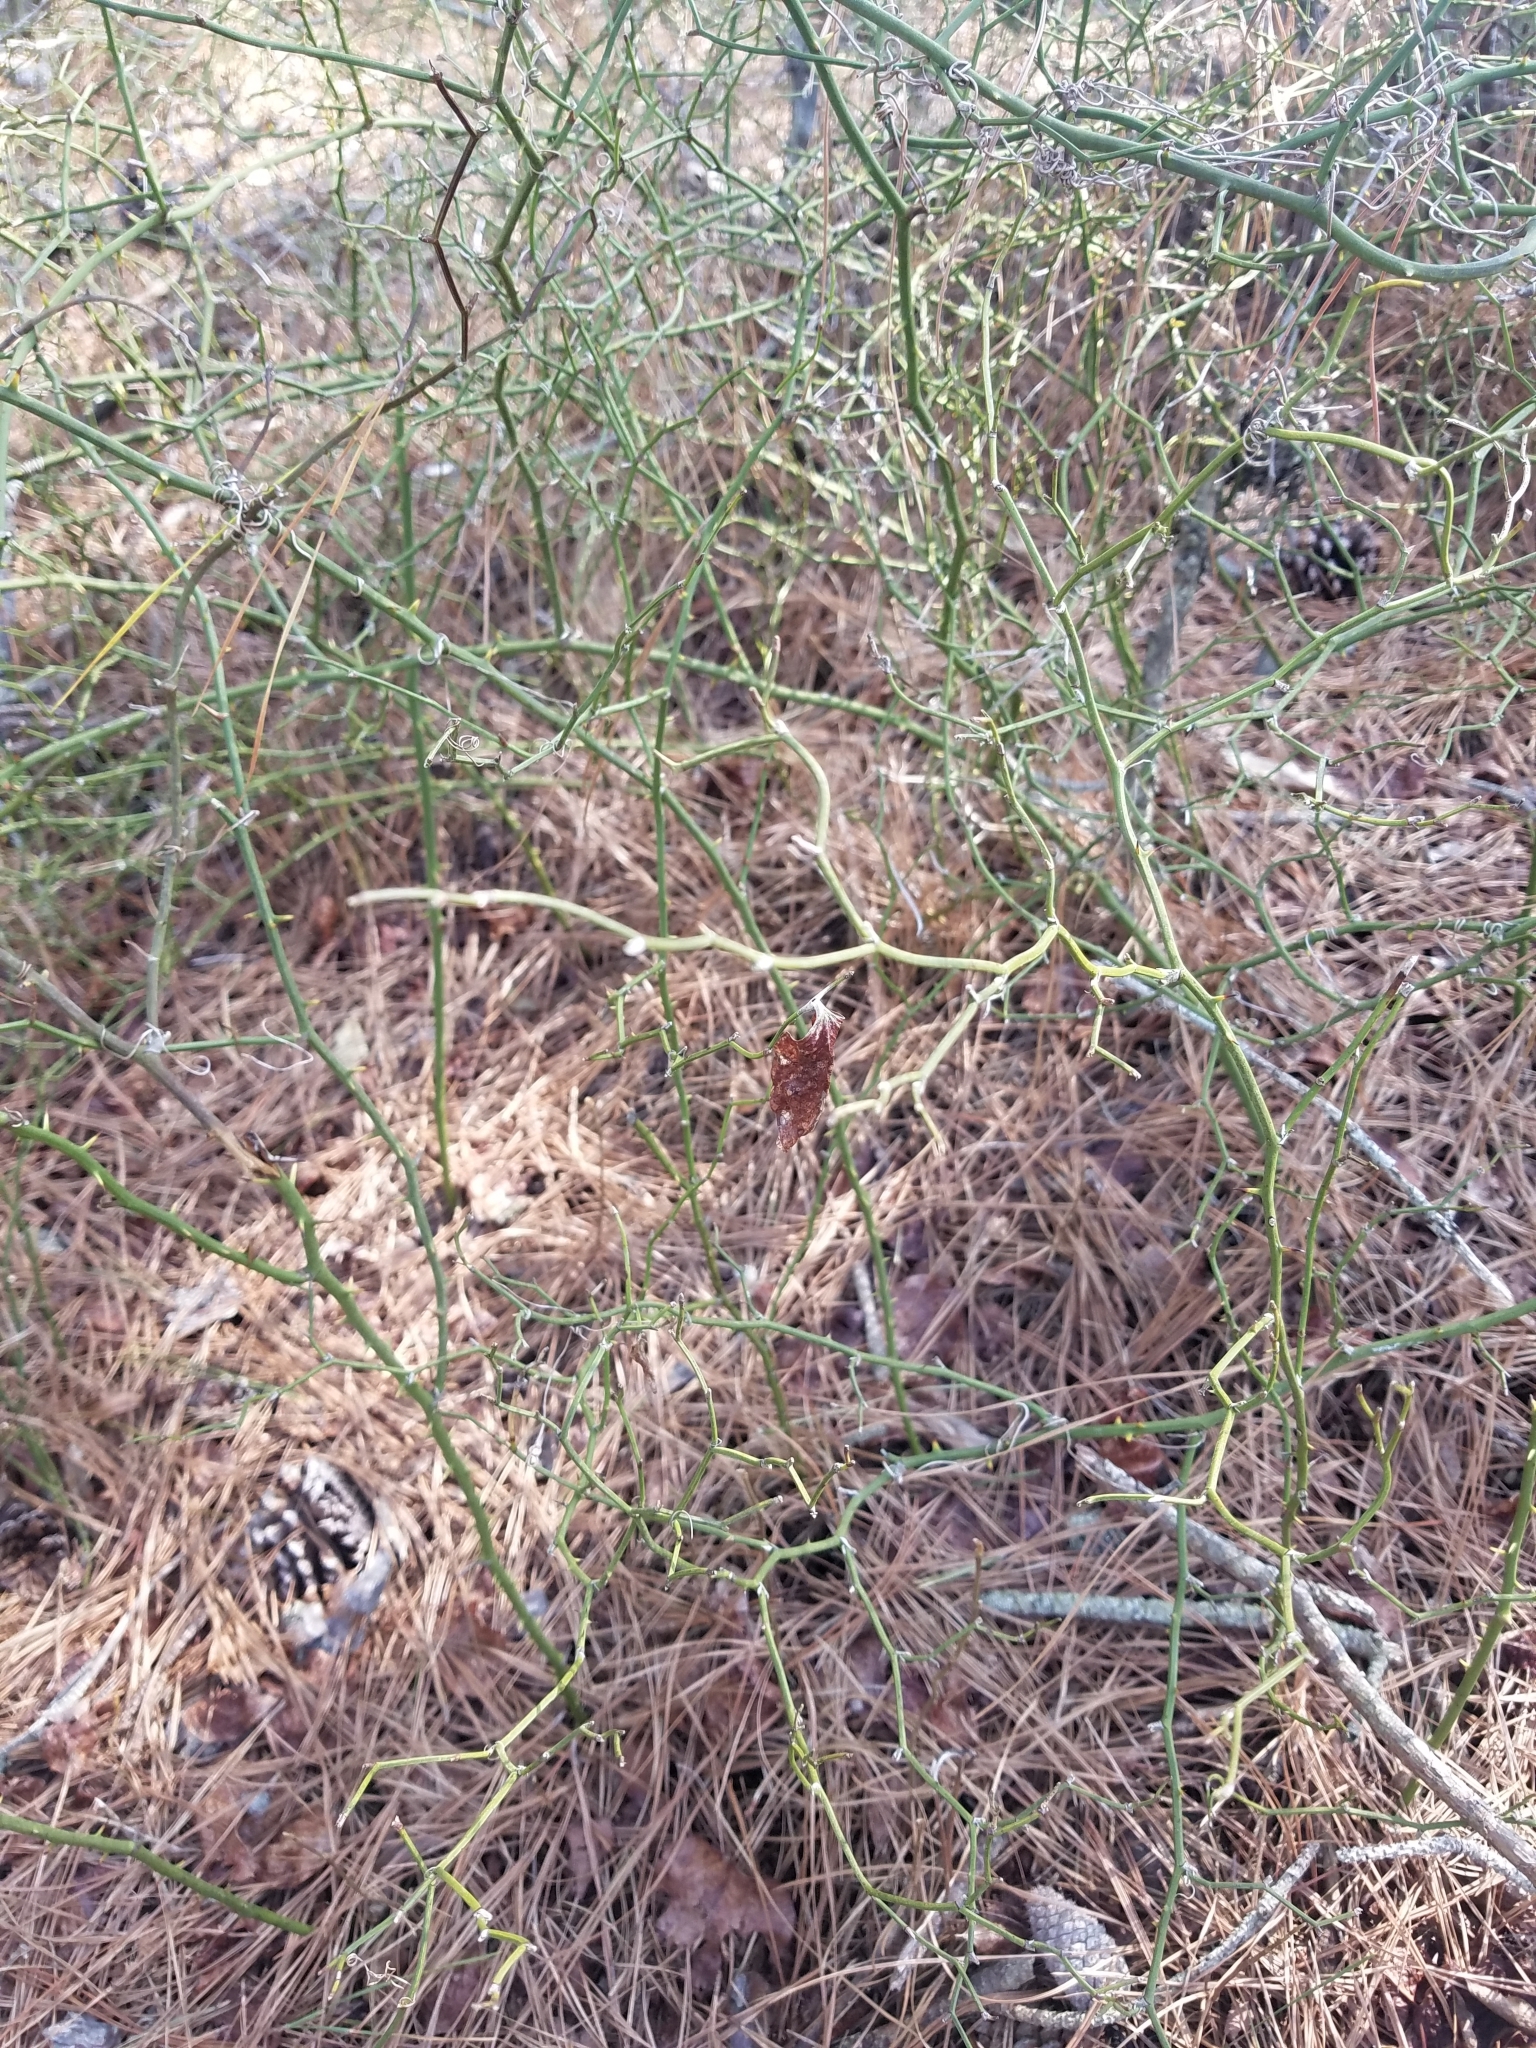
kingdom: Plantae
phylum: Tracheophyta
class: Liliopsida
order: Liliales
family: Smilacaceae
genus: Smilax
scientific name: Smilax rotundifolia
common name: Bullbriar
